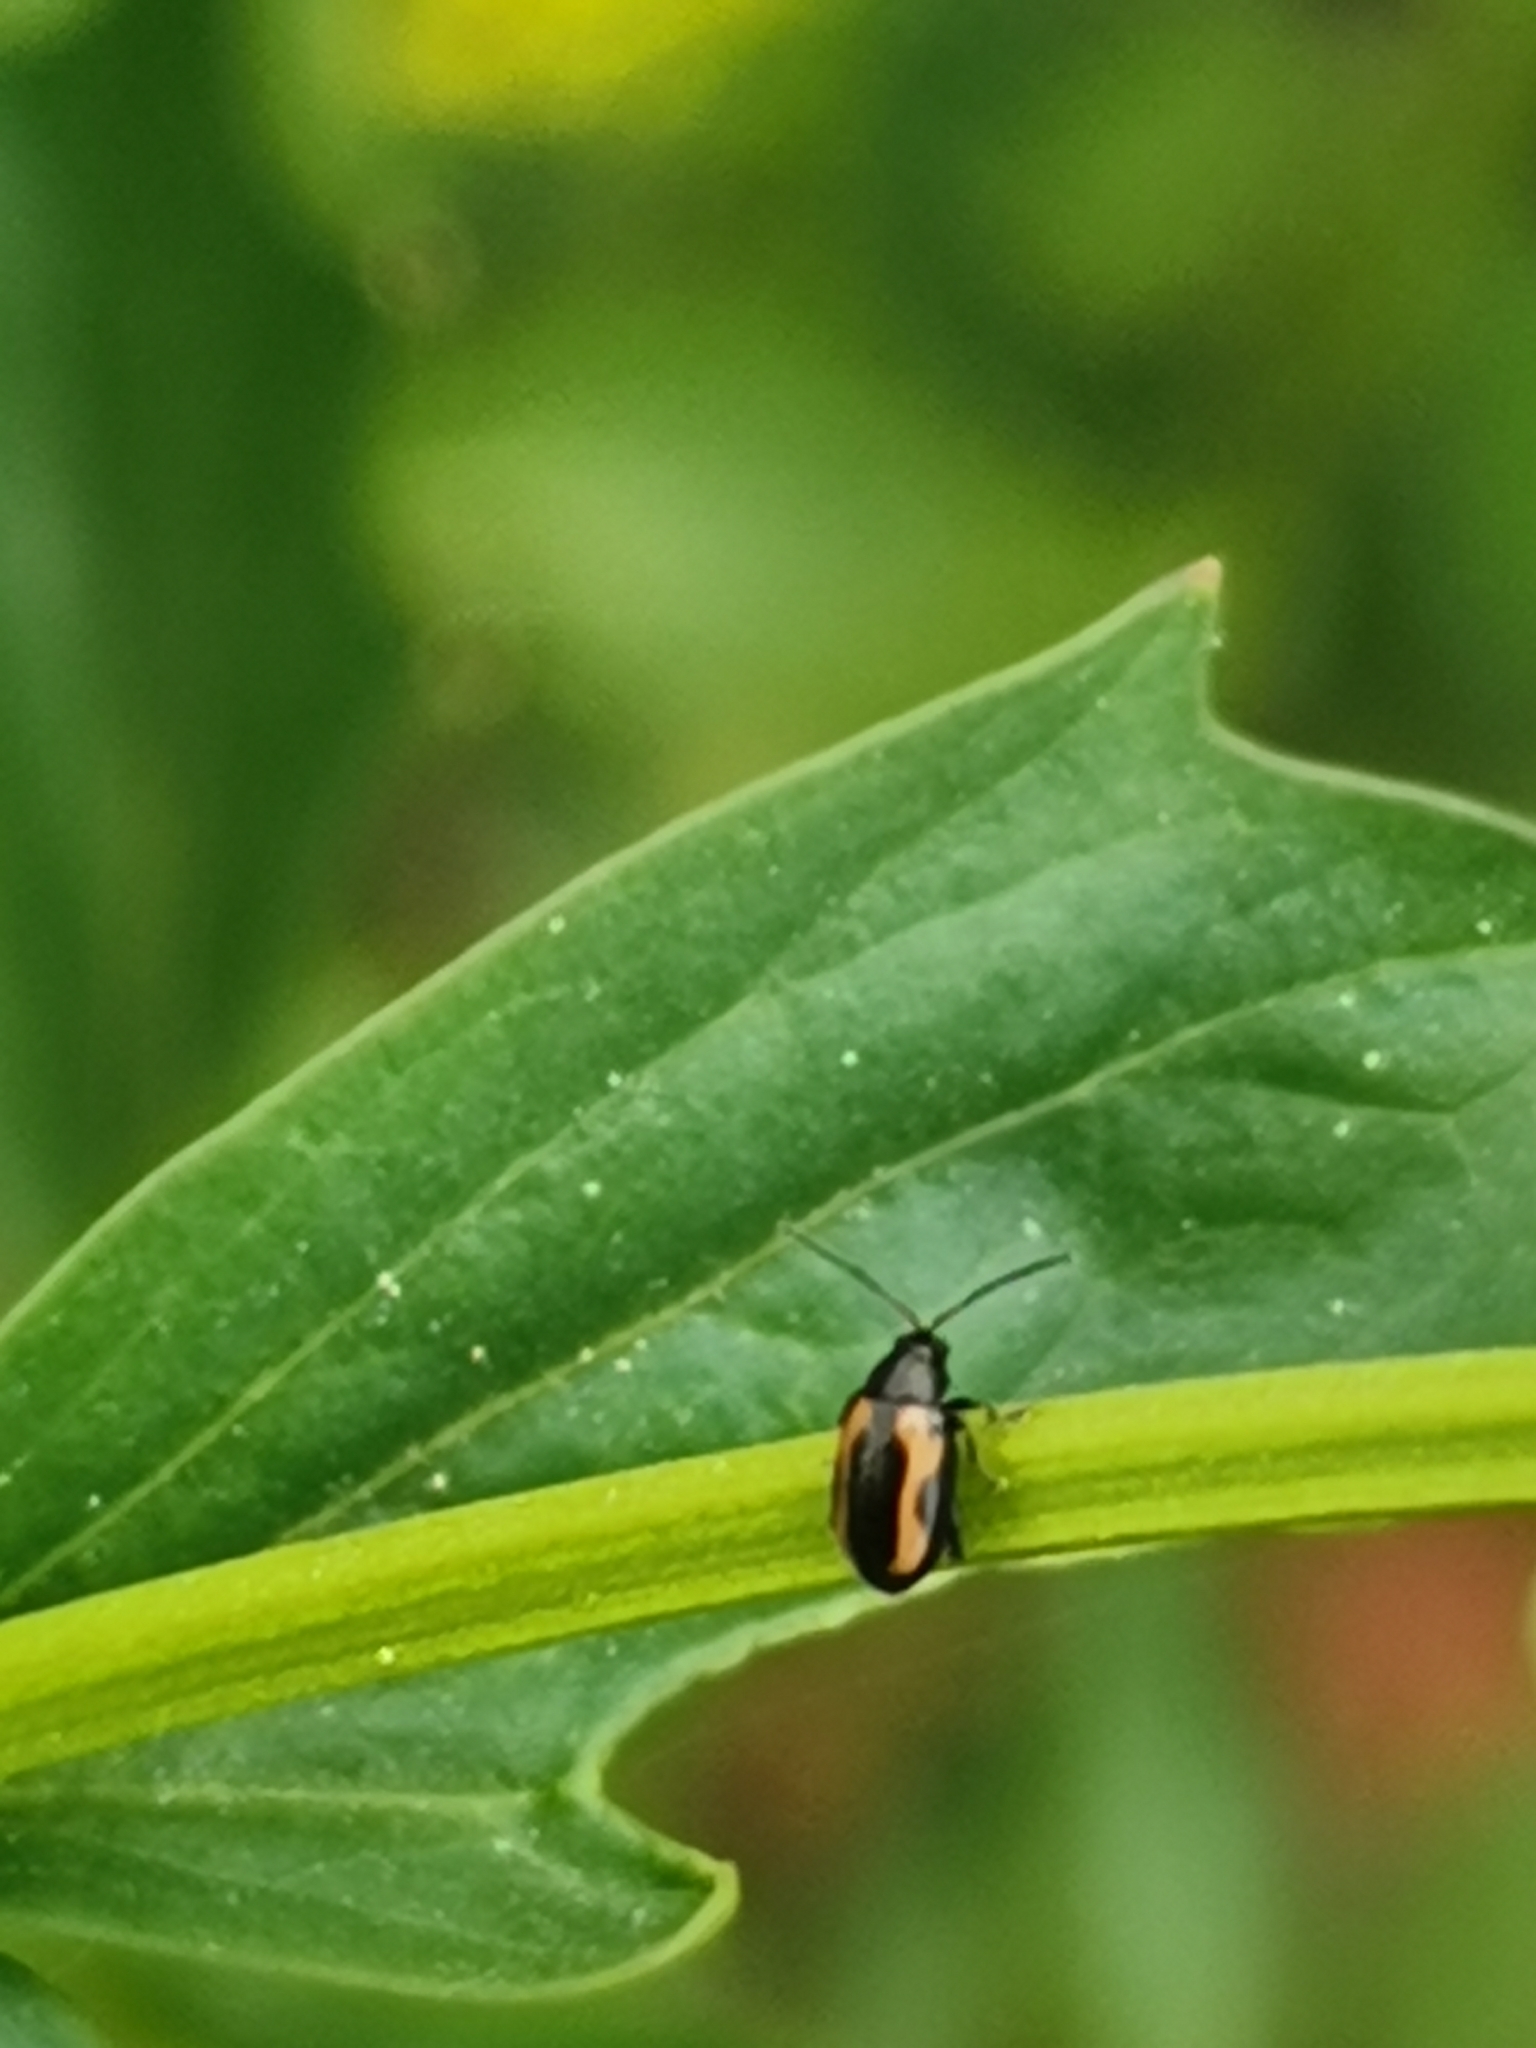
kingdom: Animalia
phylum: Arthropoda
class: Insecta
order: Coleoptera
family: Chrysomelidae
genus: Phyllotreta
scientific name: Phyllotreta striolata
